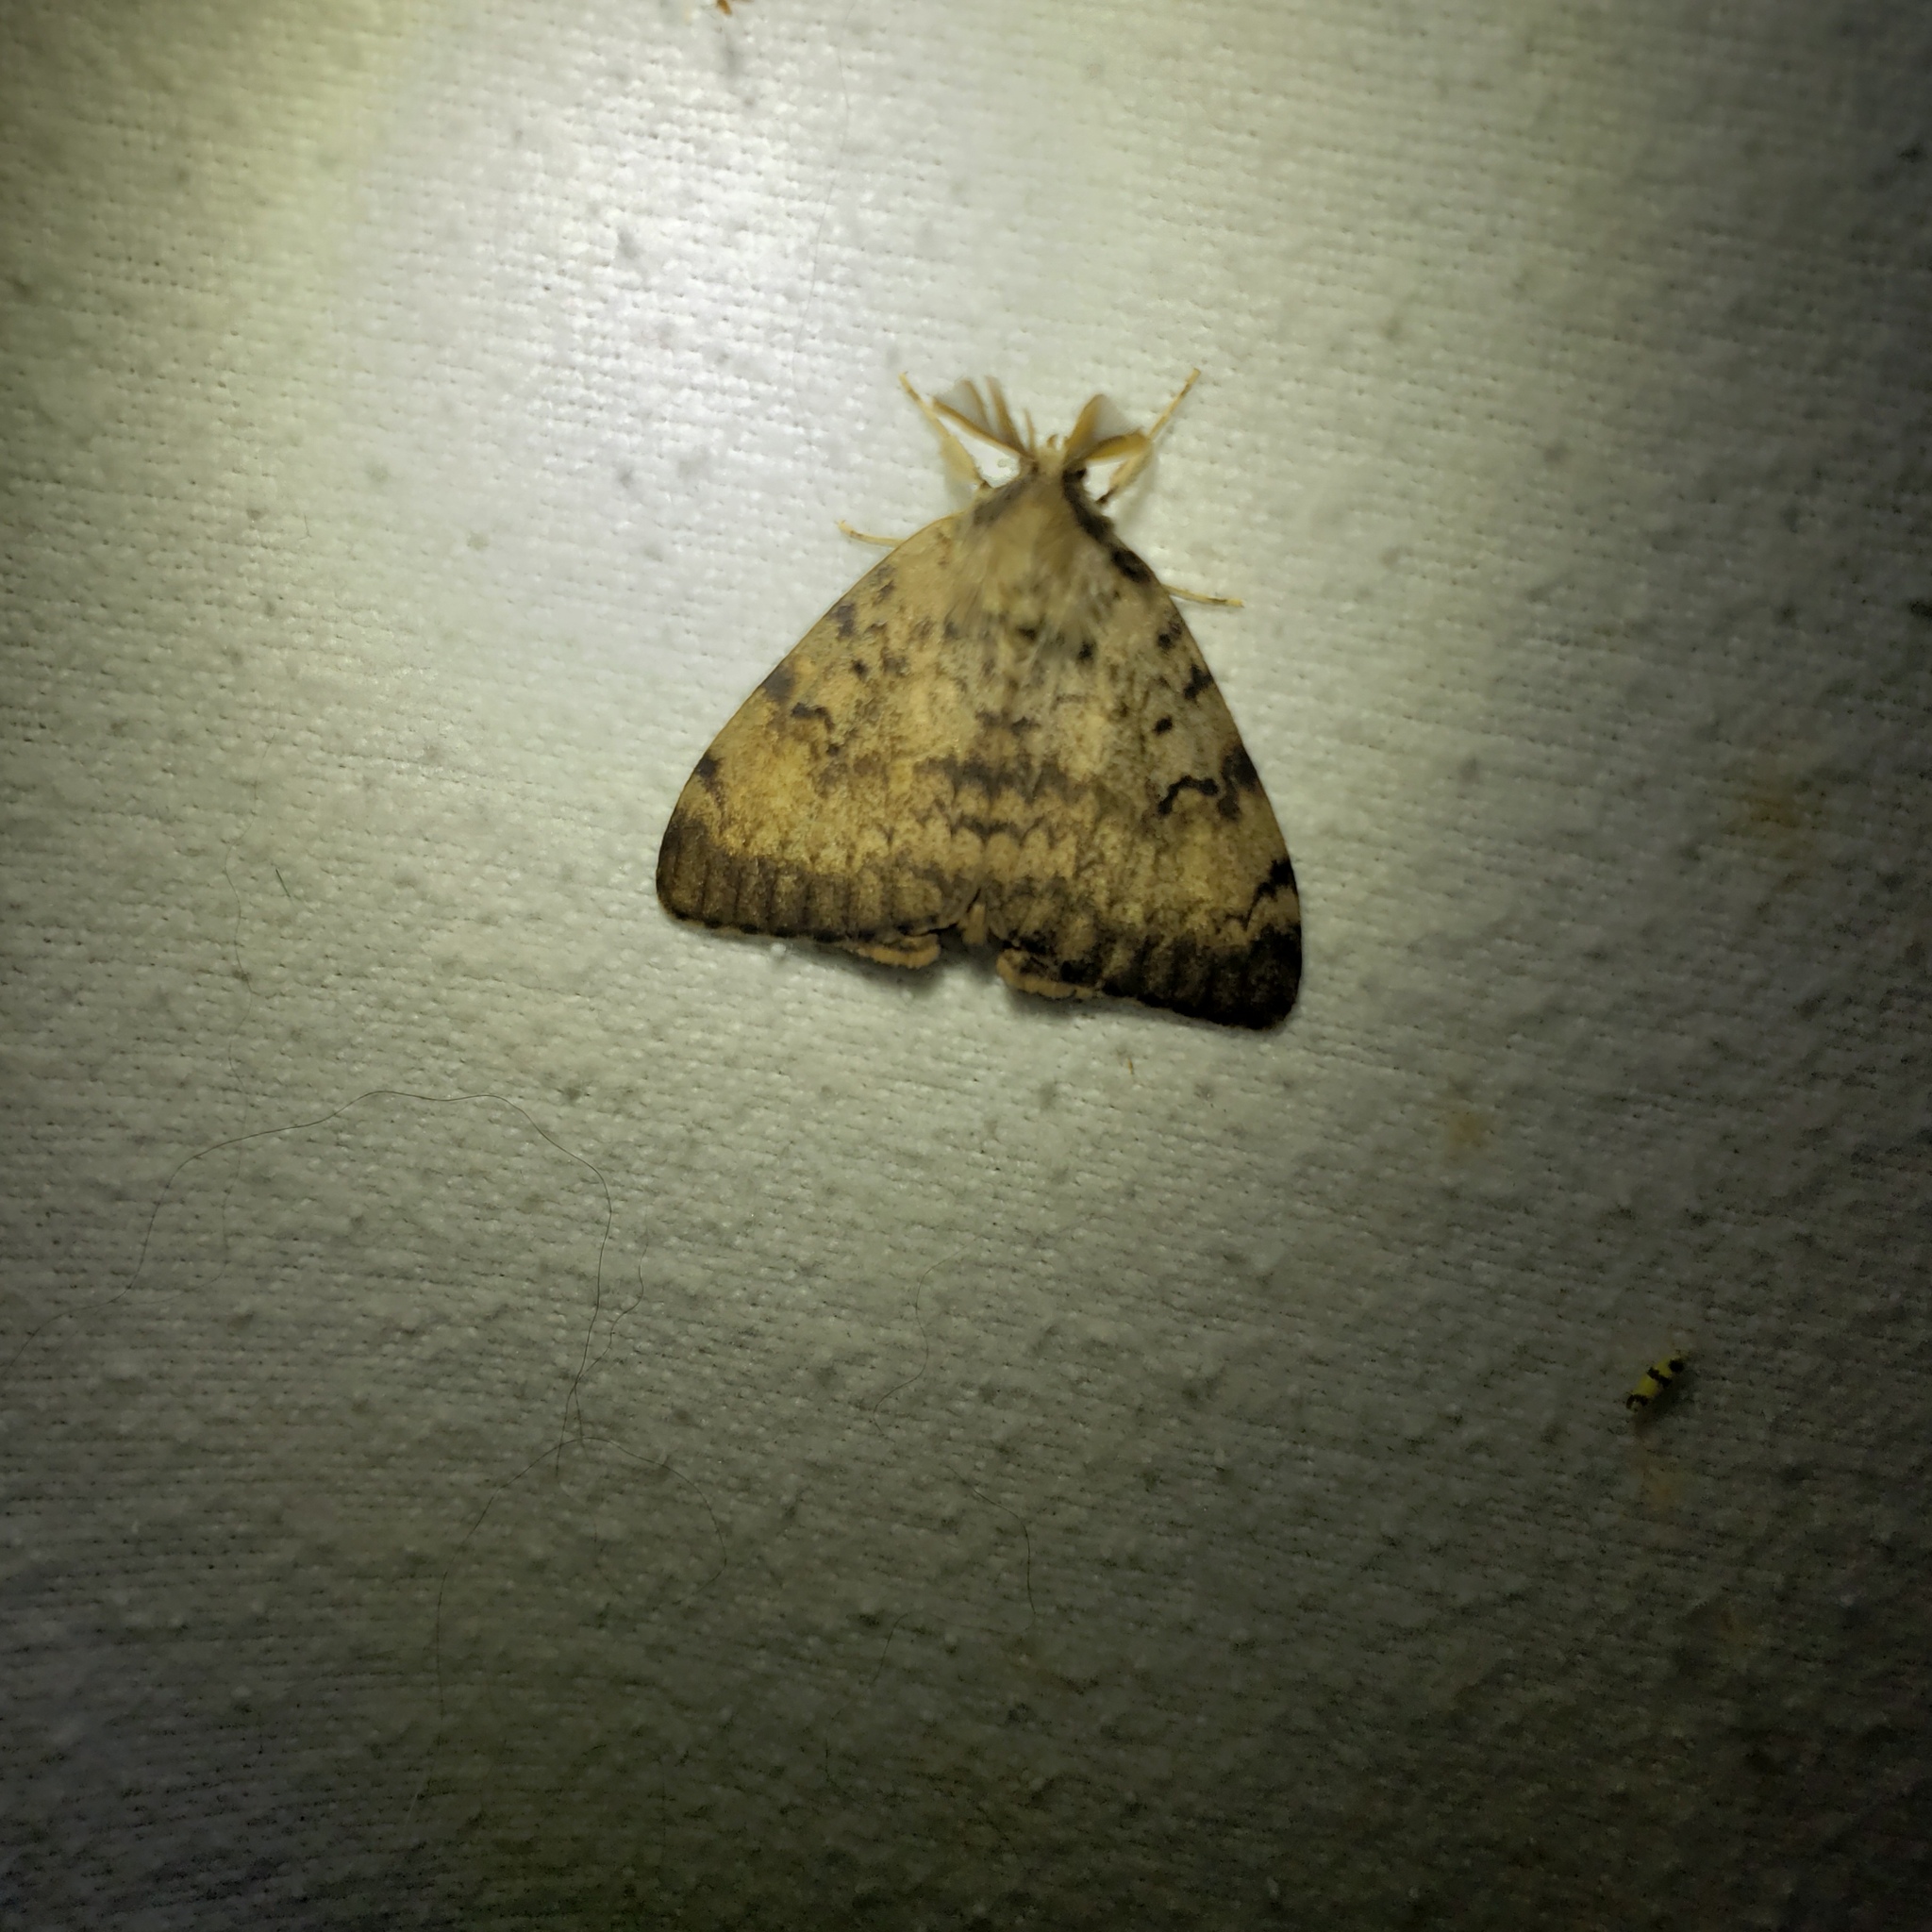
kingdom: Animalia
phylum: Arthropoda
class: Insecta
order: Lepidoptera
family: Erebidae
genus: Lymantria
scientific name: Lymantria dispar
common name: Gypsy moth
